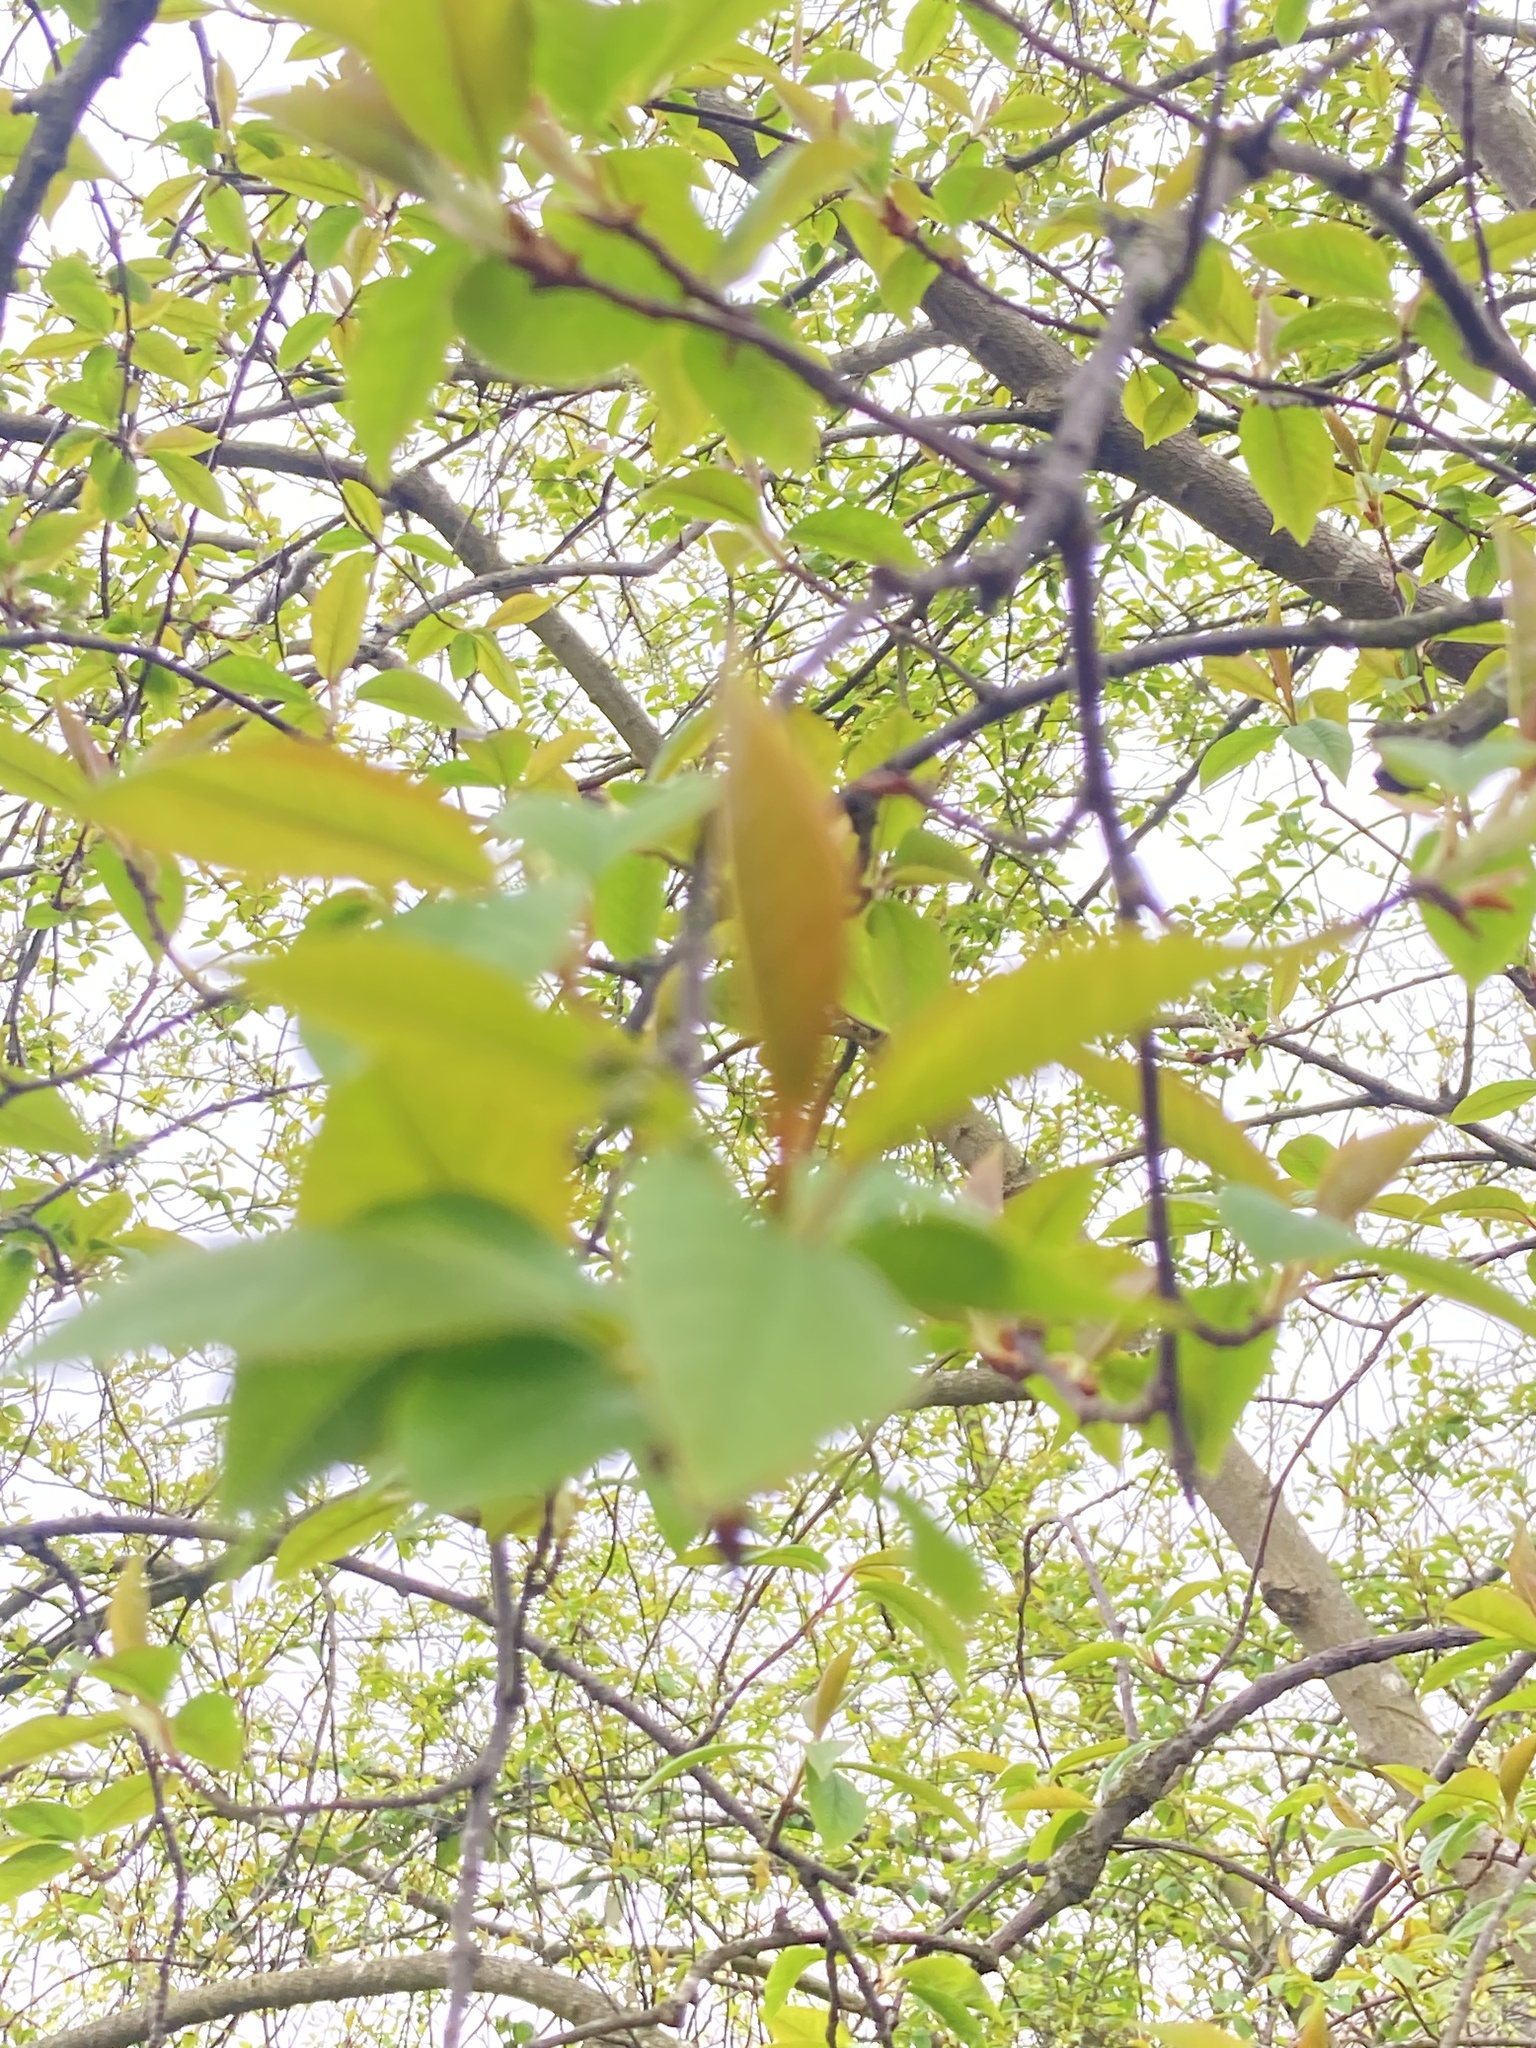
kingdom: Plantae
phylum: Tracheophyta
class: Magnoliopsida
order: Rosales
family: Rosaceae
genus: Prunus
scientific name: Prunus padus
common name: Bird cherry
